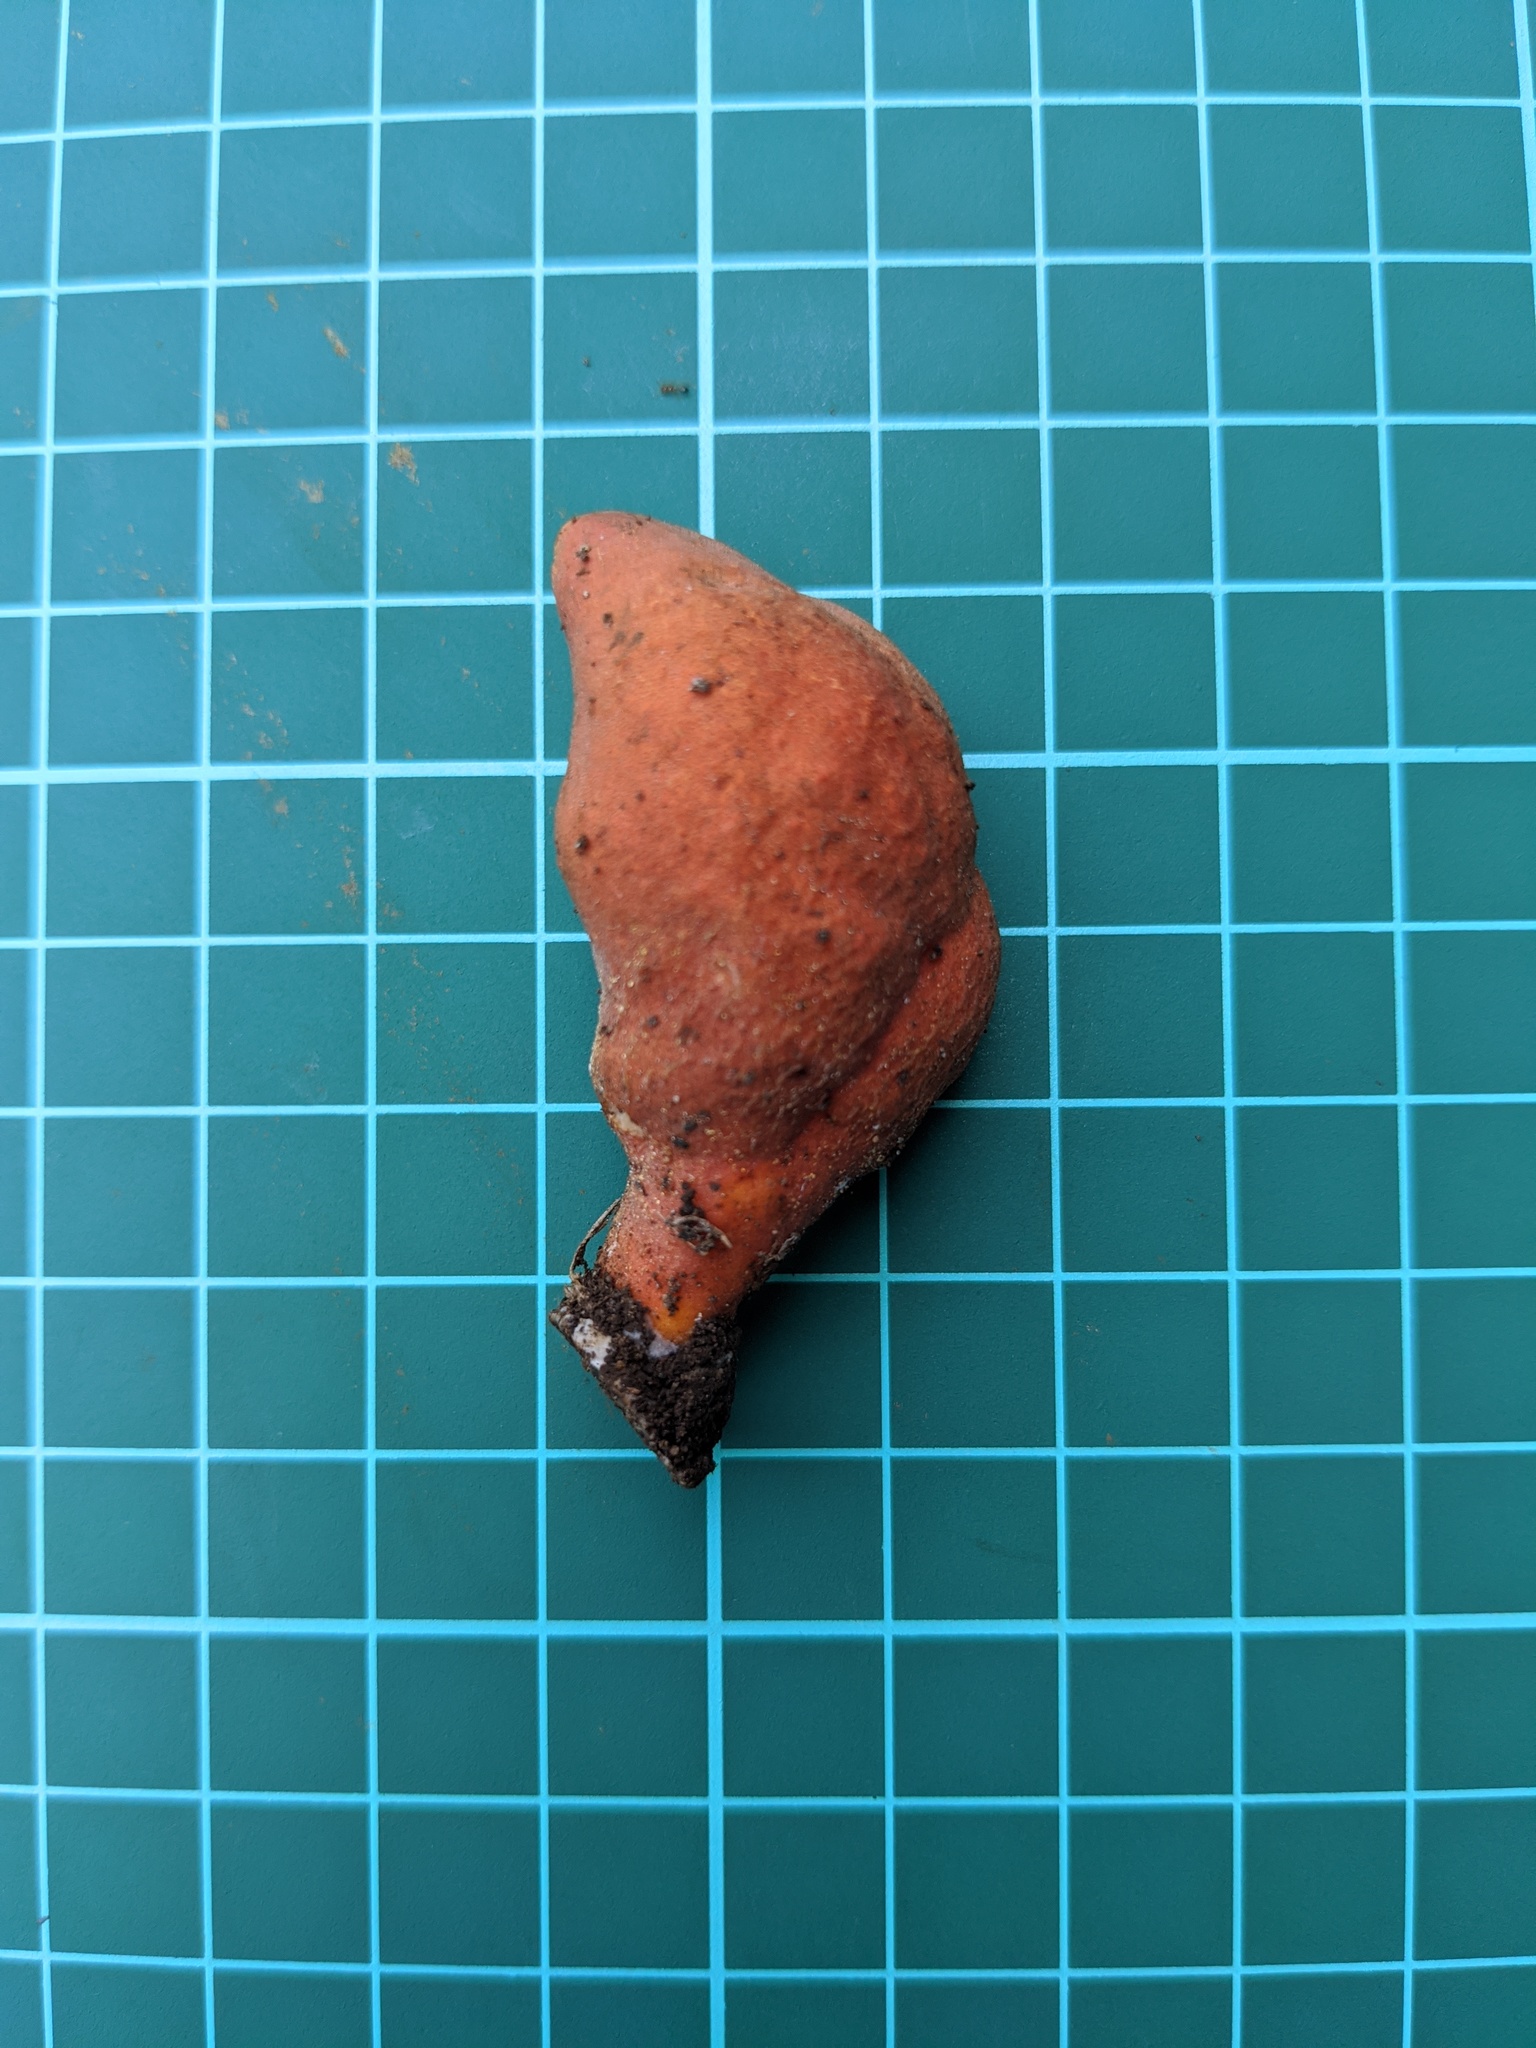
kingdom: Fungi
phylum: Ascomycota
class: Sordariomycetes
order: Hypocreales
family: Hypocreaceae
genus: Trichoderma
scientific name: Trichoderma cornu-damae
